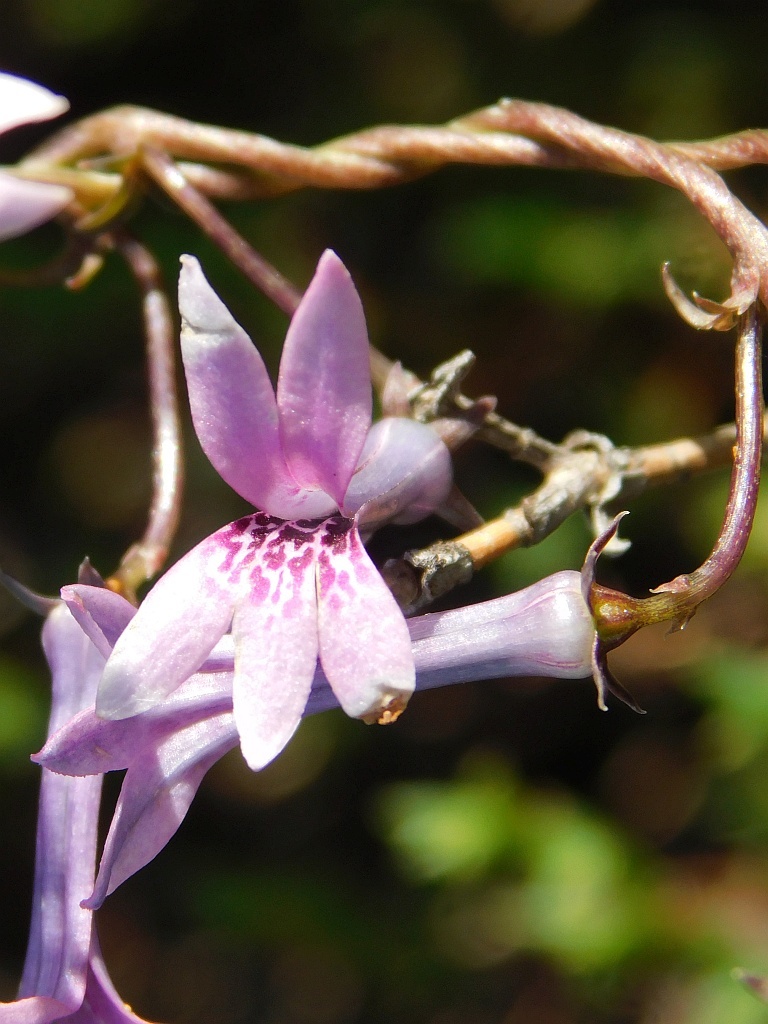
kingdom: Plantae
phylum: Tracheophyta
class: Magnoliopsida
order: Asterales
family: Campanulaceae
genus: Cyphia
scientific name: Cyphia volubilis
